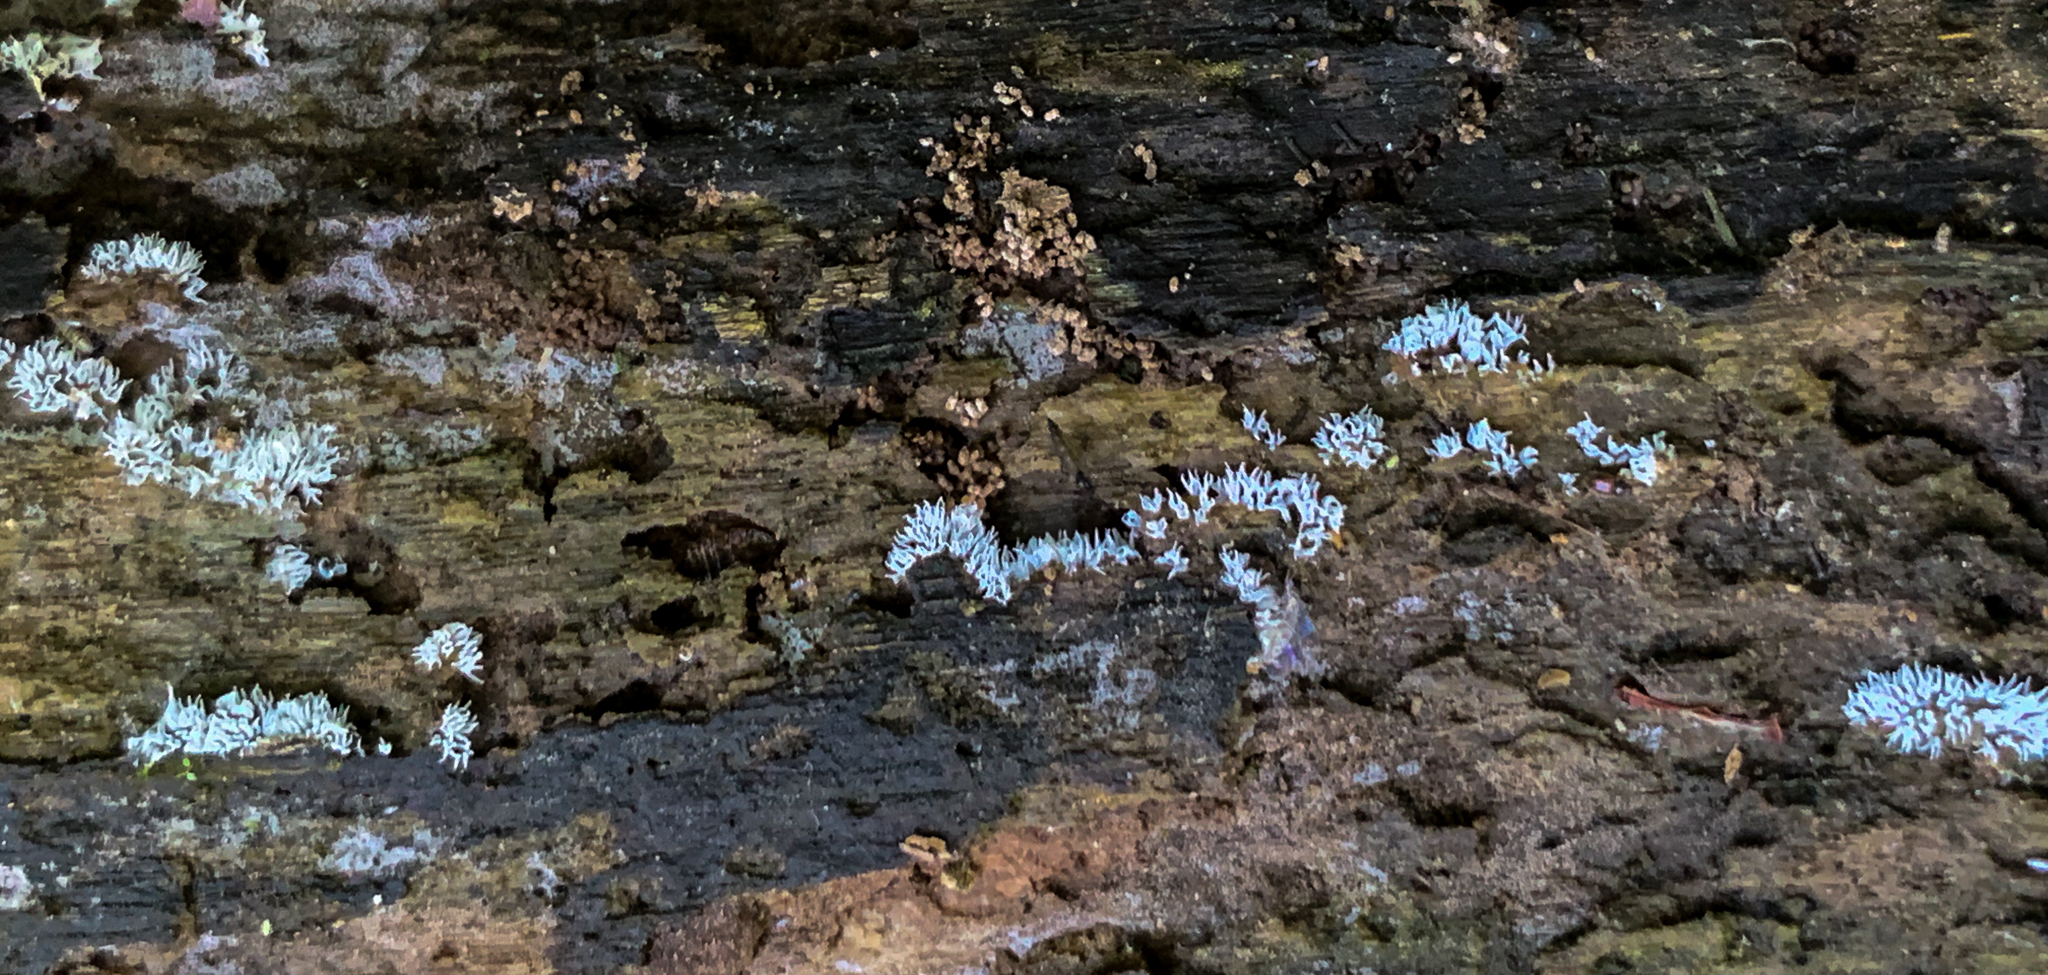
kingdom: Protozoa
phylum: Mycetozoa
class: Protosteliomycetes
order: Ceratiomyxales
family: Ceratiomyxaceae
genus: Ceratiomyxa
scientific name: Ceratiomyxa fruticulosa
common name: Honeycomb coral slime mold
